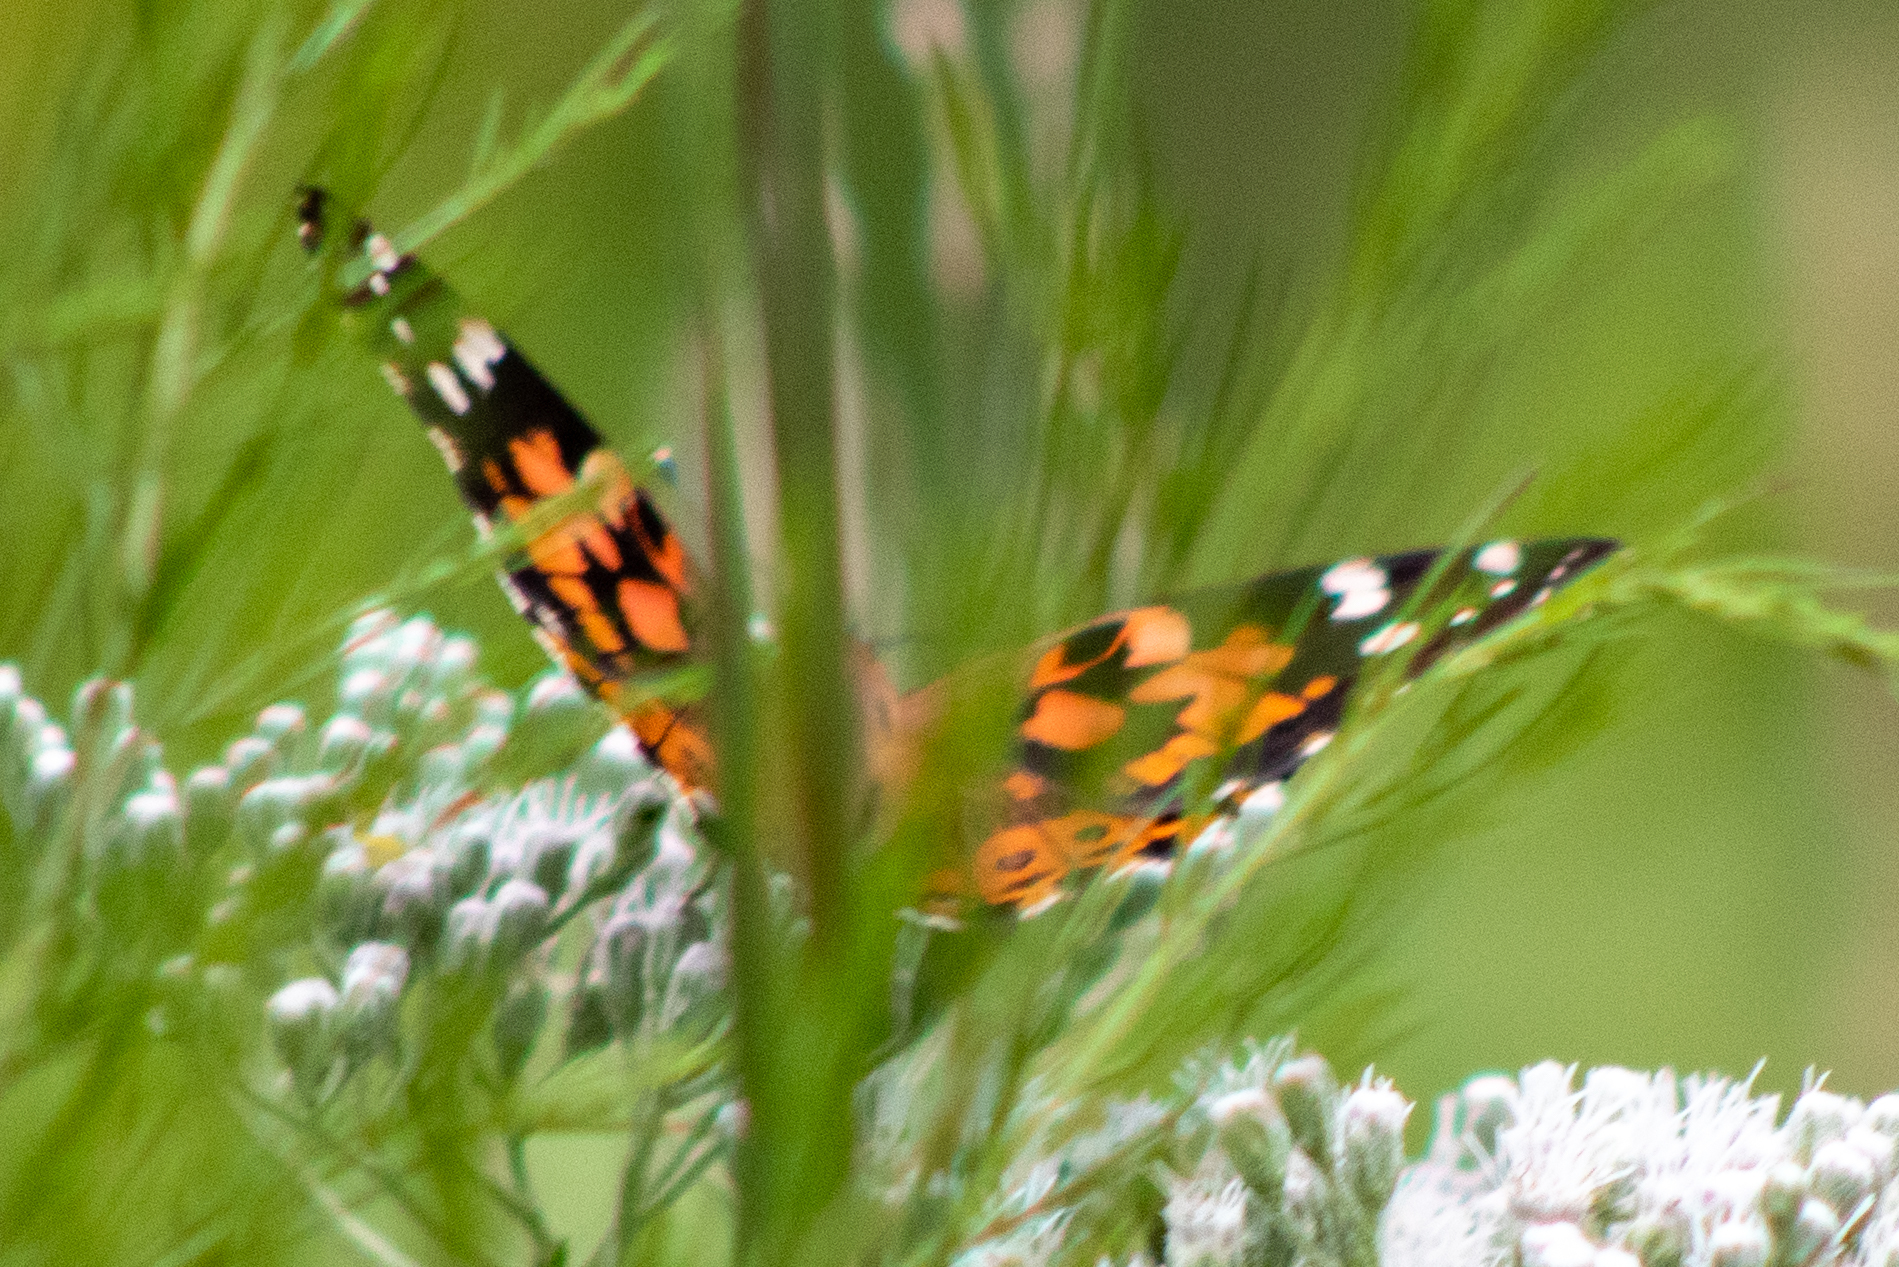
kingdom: Animalia
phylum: Arthropoda
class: Insecta
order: Lepidoptera
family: Nymphalidae
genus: Vanessa
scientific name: Vanessa cardui
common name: Painted lady
